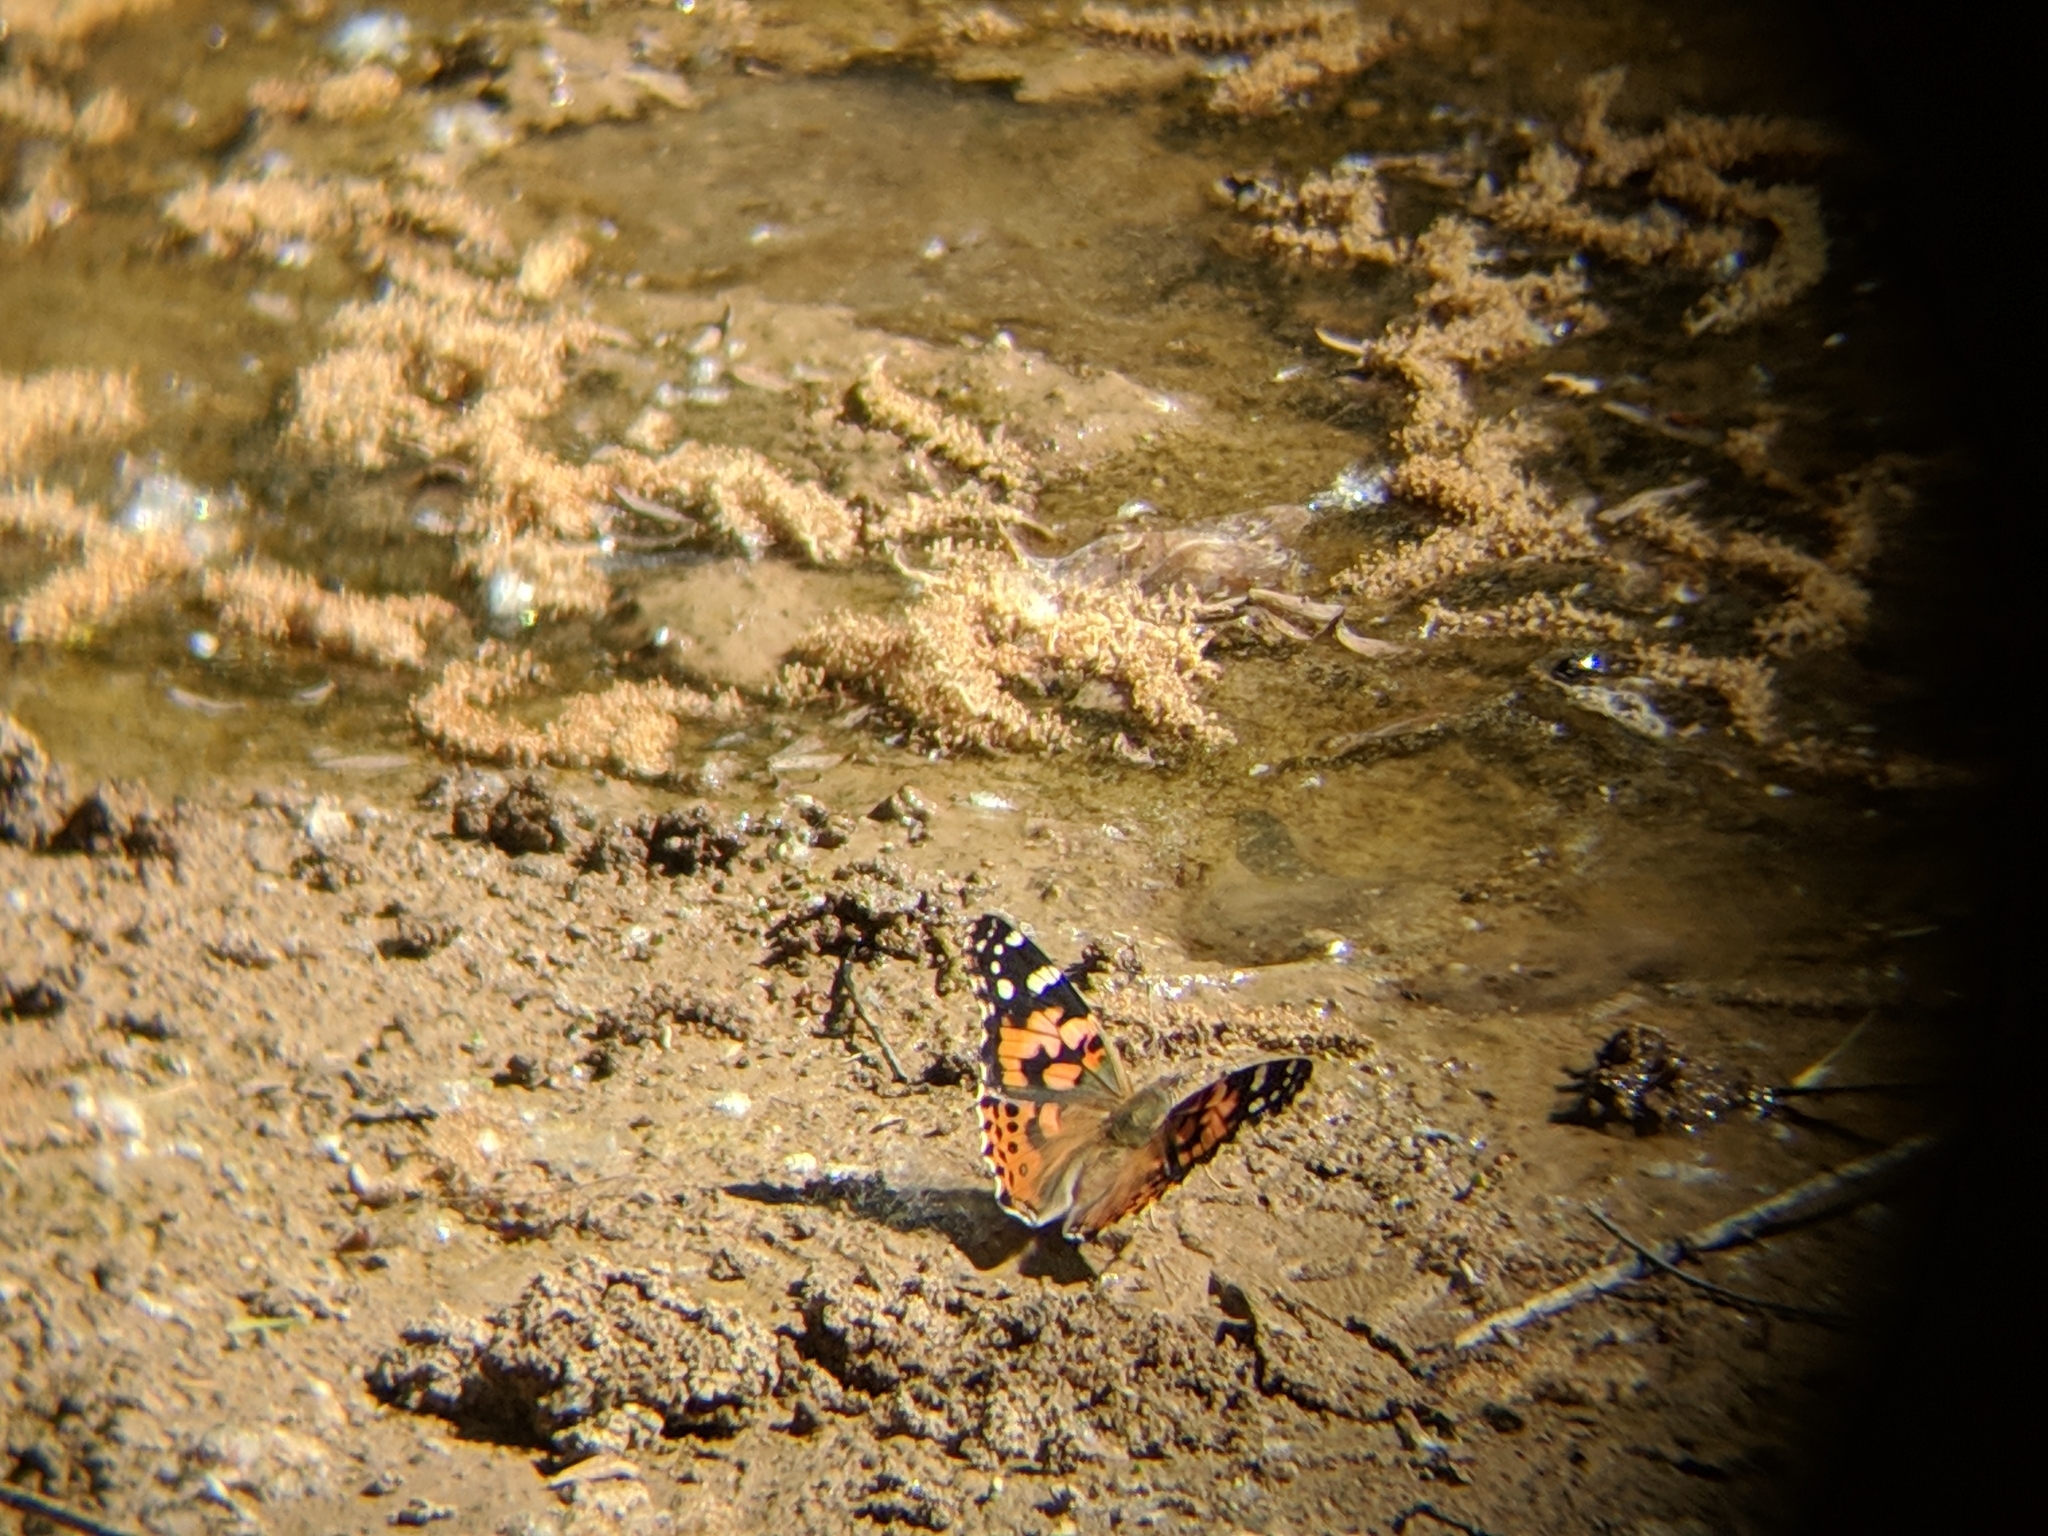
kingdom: Animalia
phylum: Arthropoda
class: Insecta
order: Lepidoptera
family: Nymphalidae
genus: Vanessa
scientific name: Vanessa cardui
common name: Painted lady
